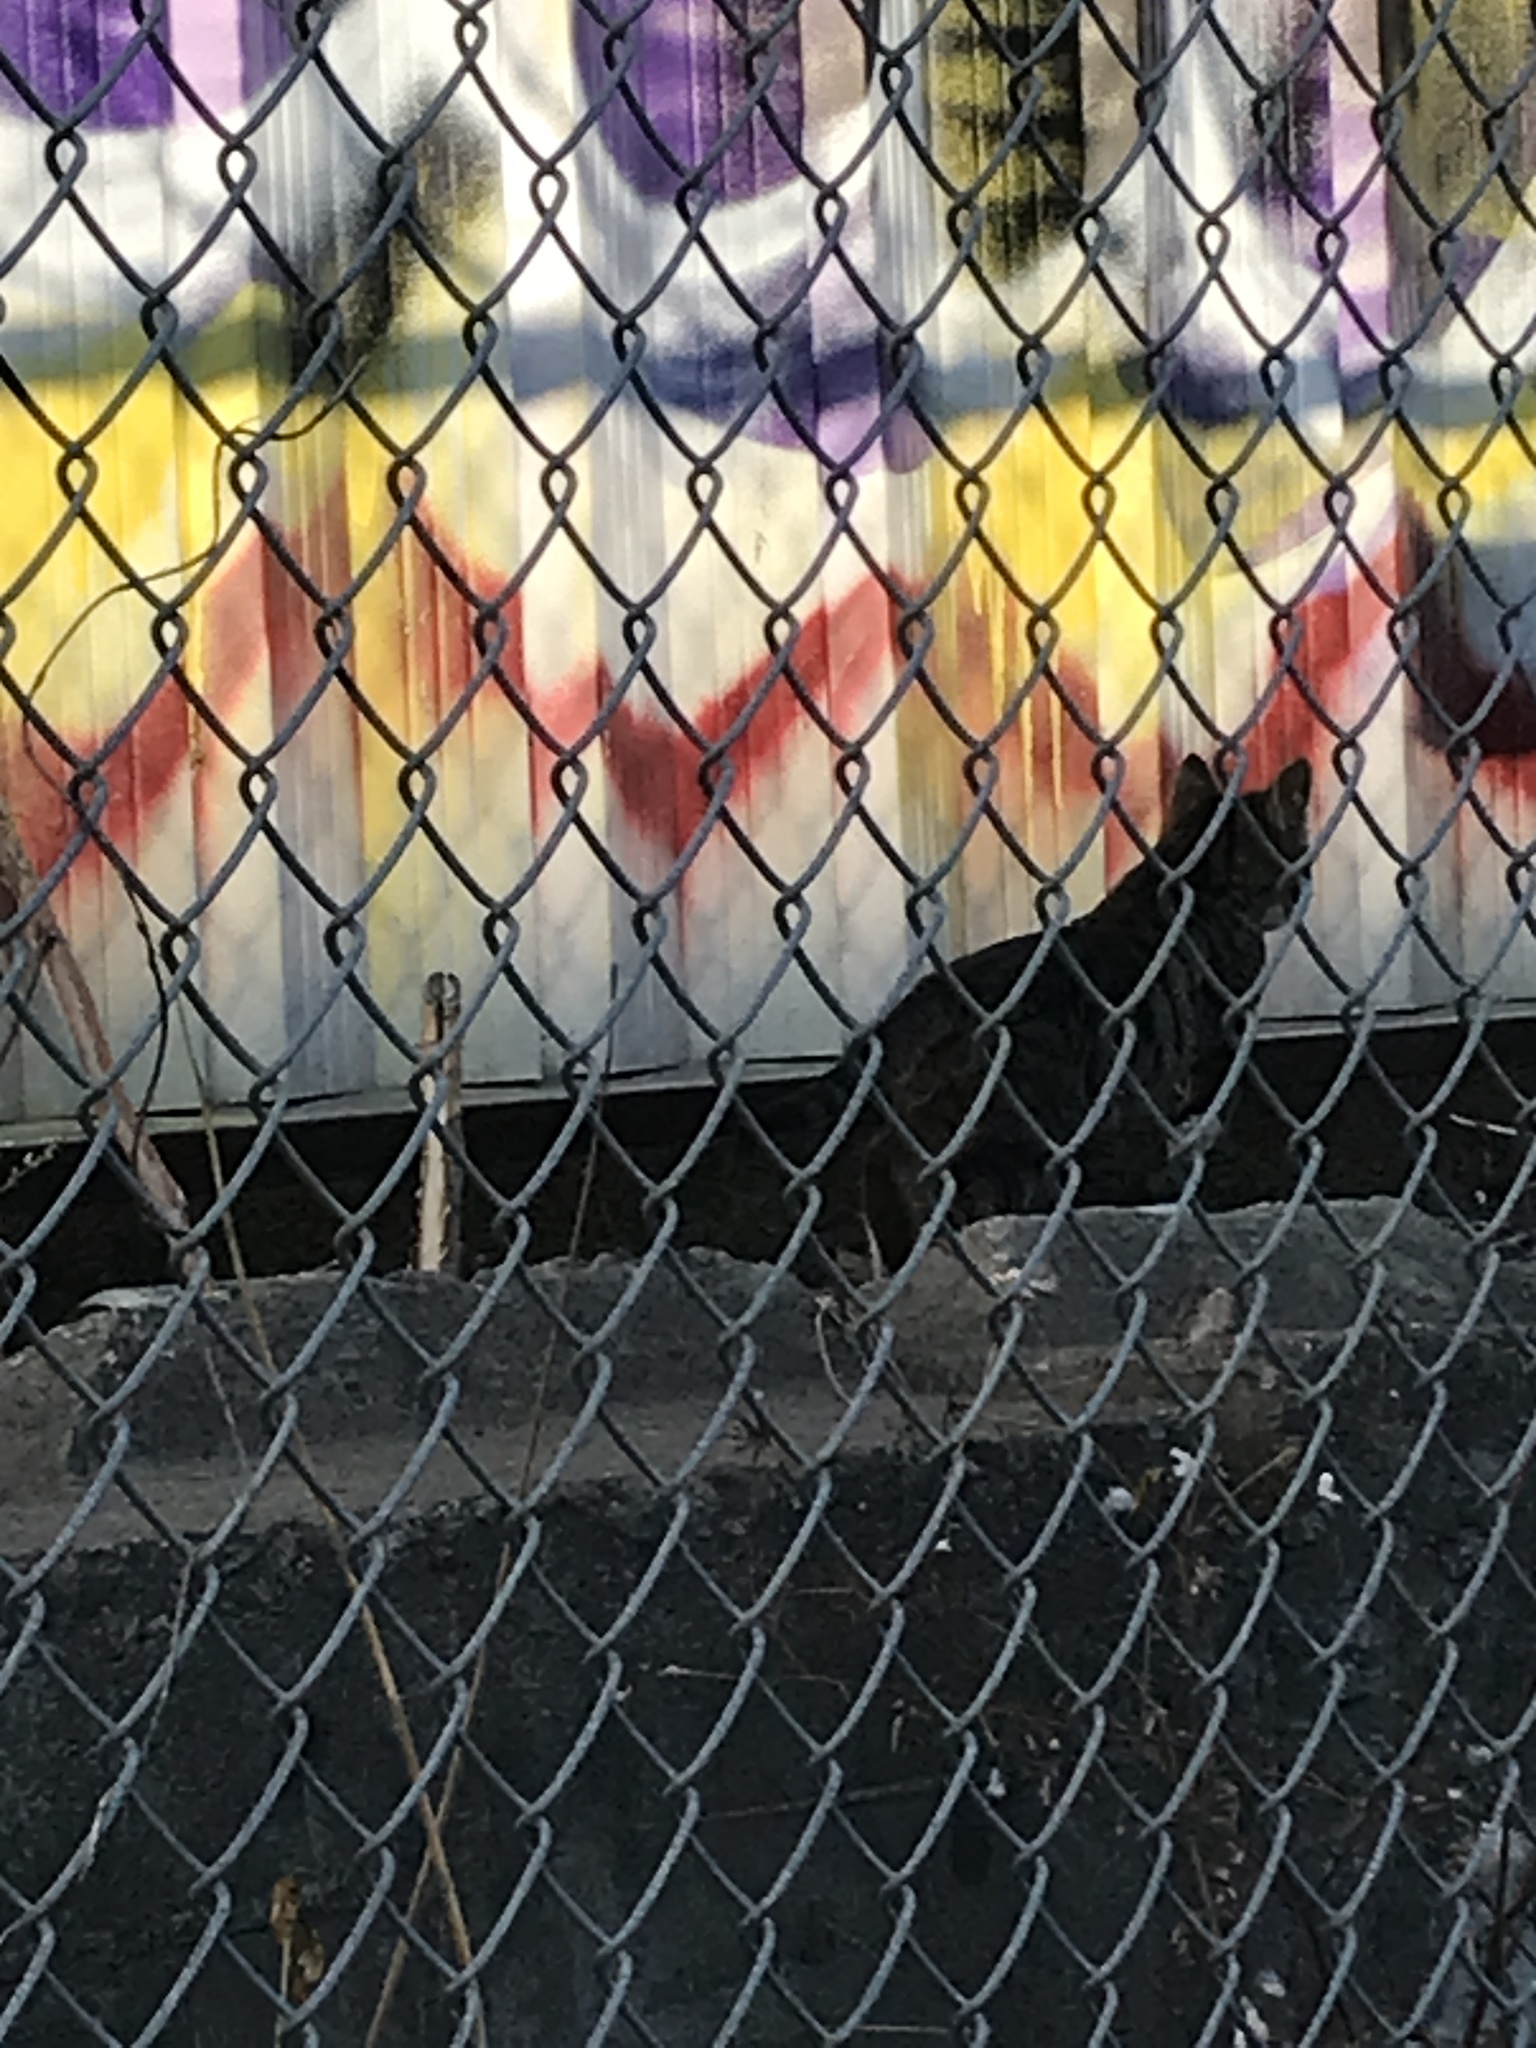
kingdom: Animalia
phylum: Chordata
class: Mammalia
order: Carnivora
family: Felidae
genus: Felis
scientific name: Felis catus
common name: Domestic cat
